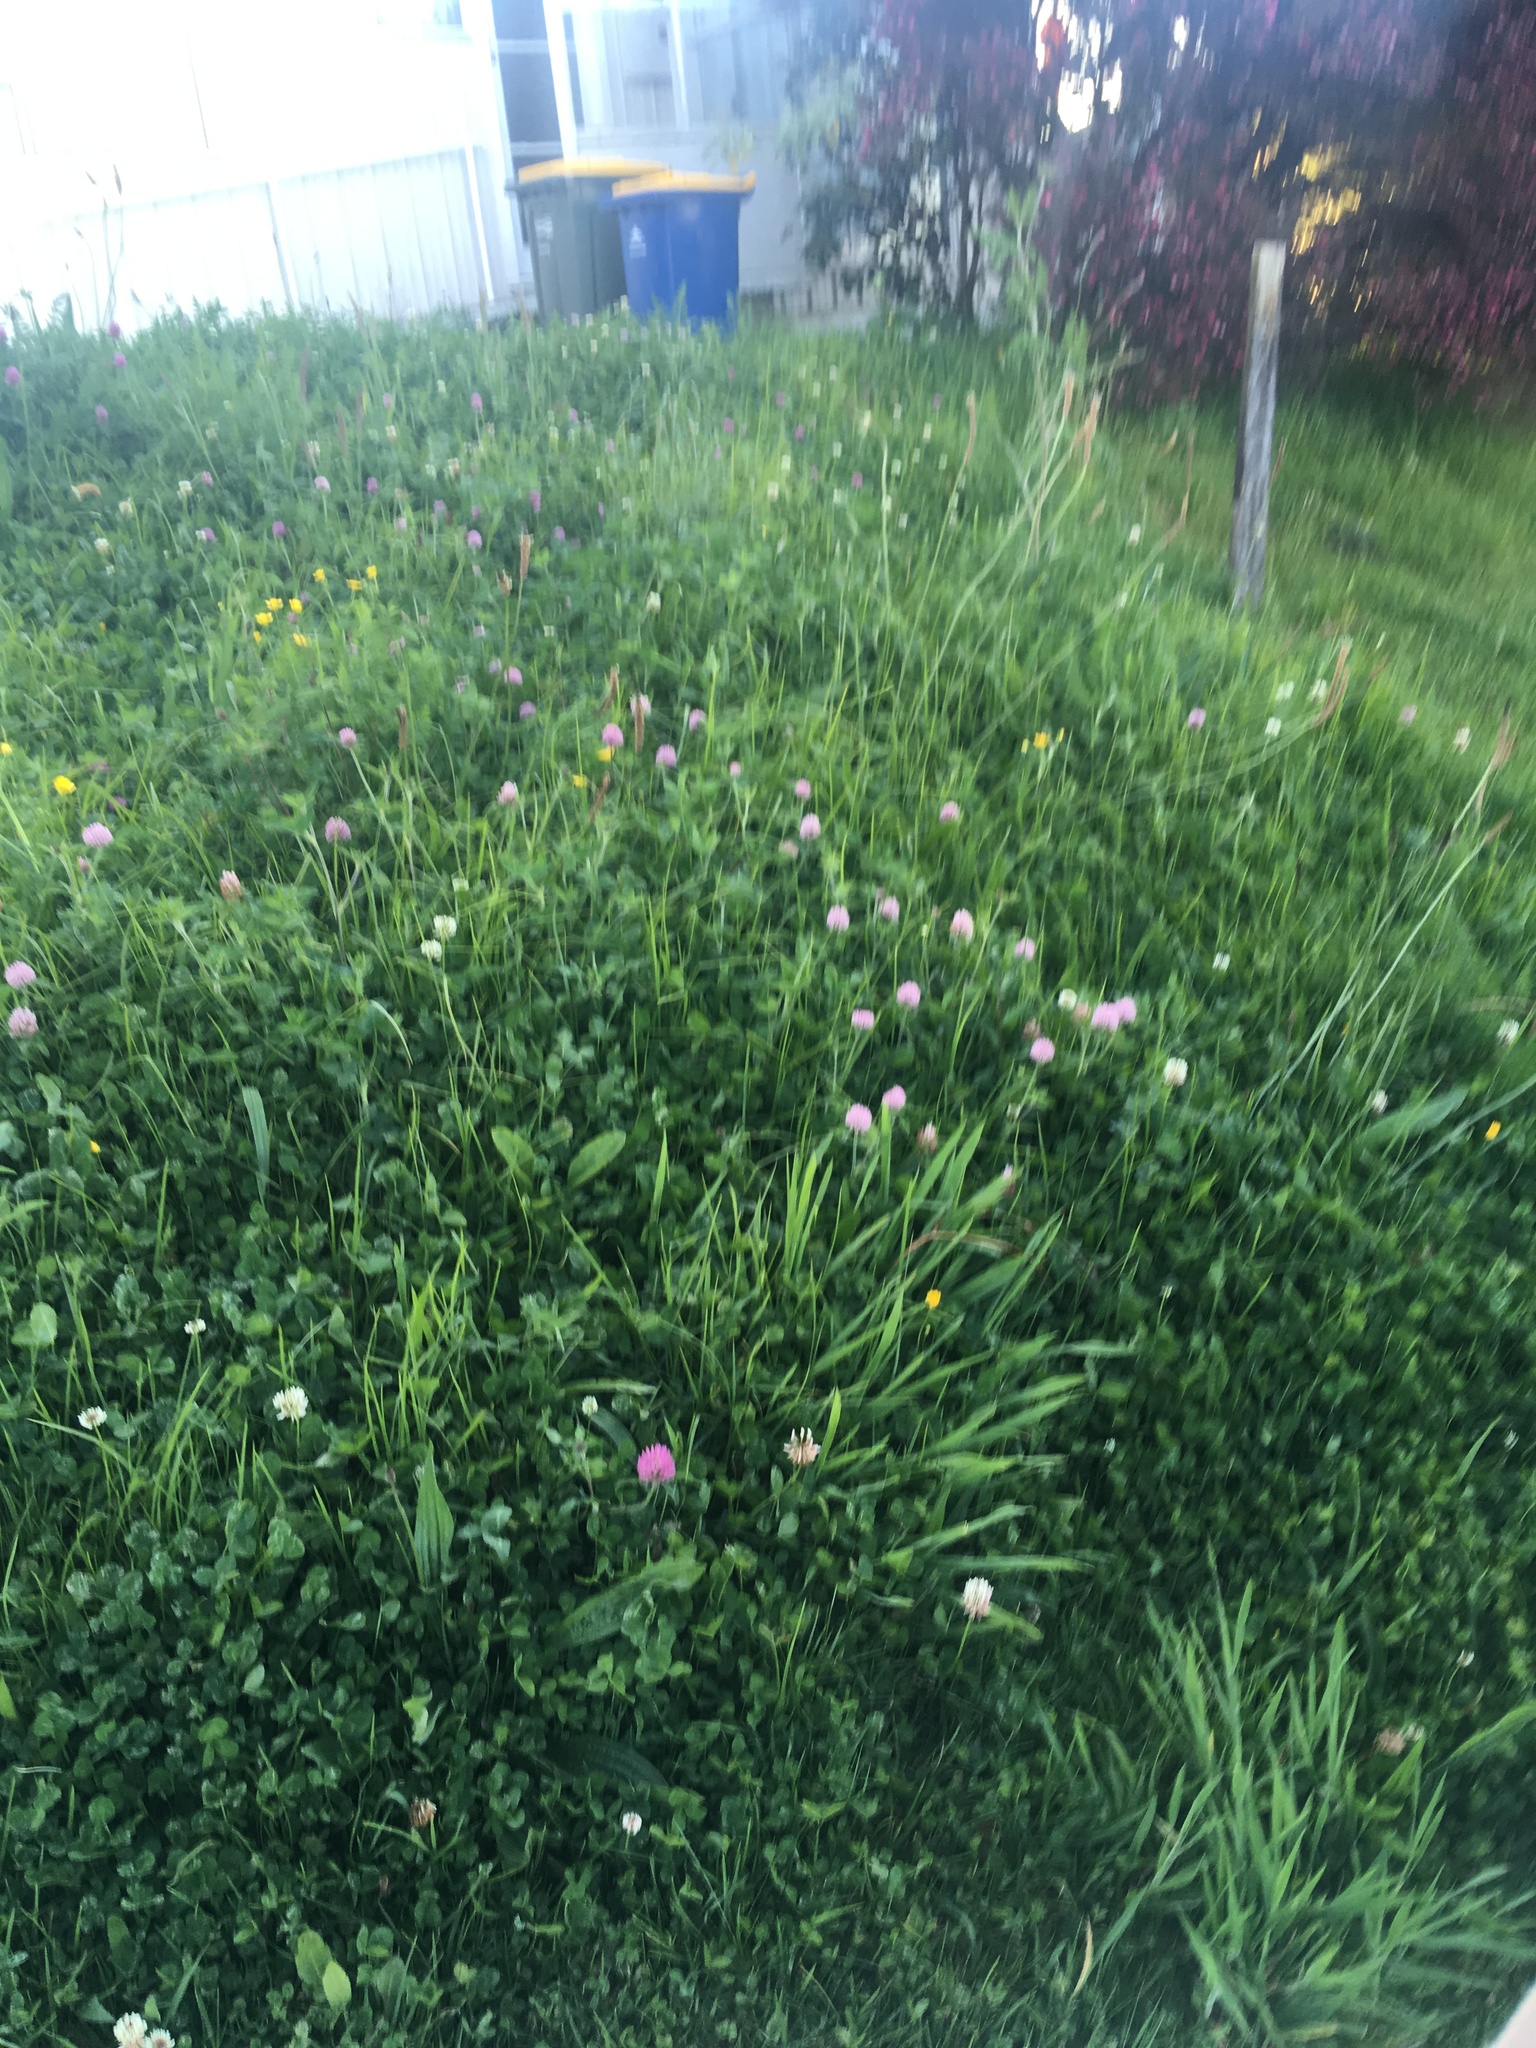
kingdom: Plantae
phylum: Tracheophyta
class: Magnoliopsida
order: Fabales
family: Fabaceae
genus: Trifolium
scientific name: Trifolium pratense
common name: Red clover
